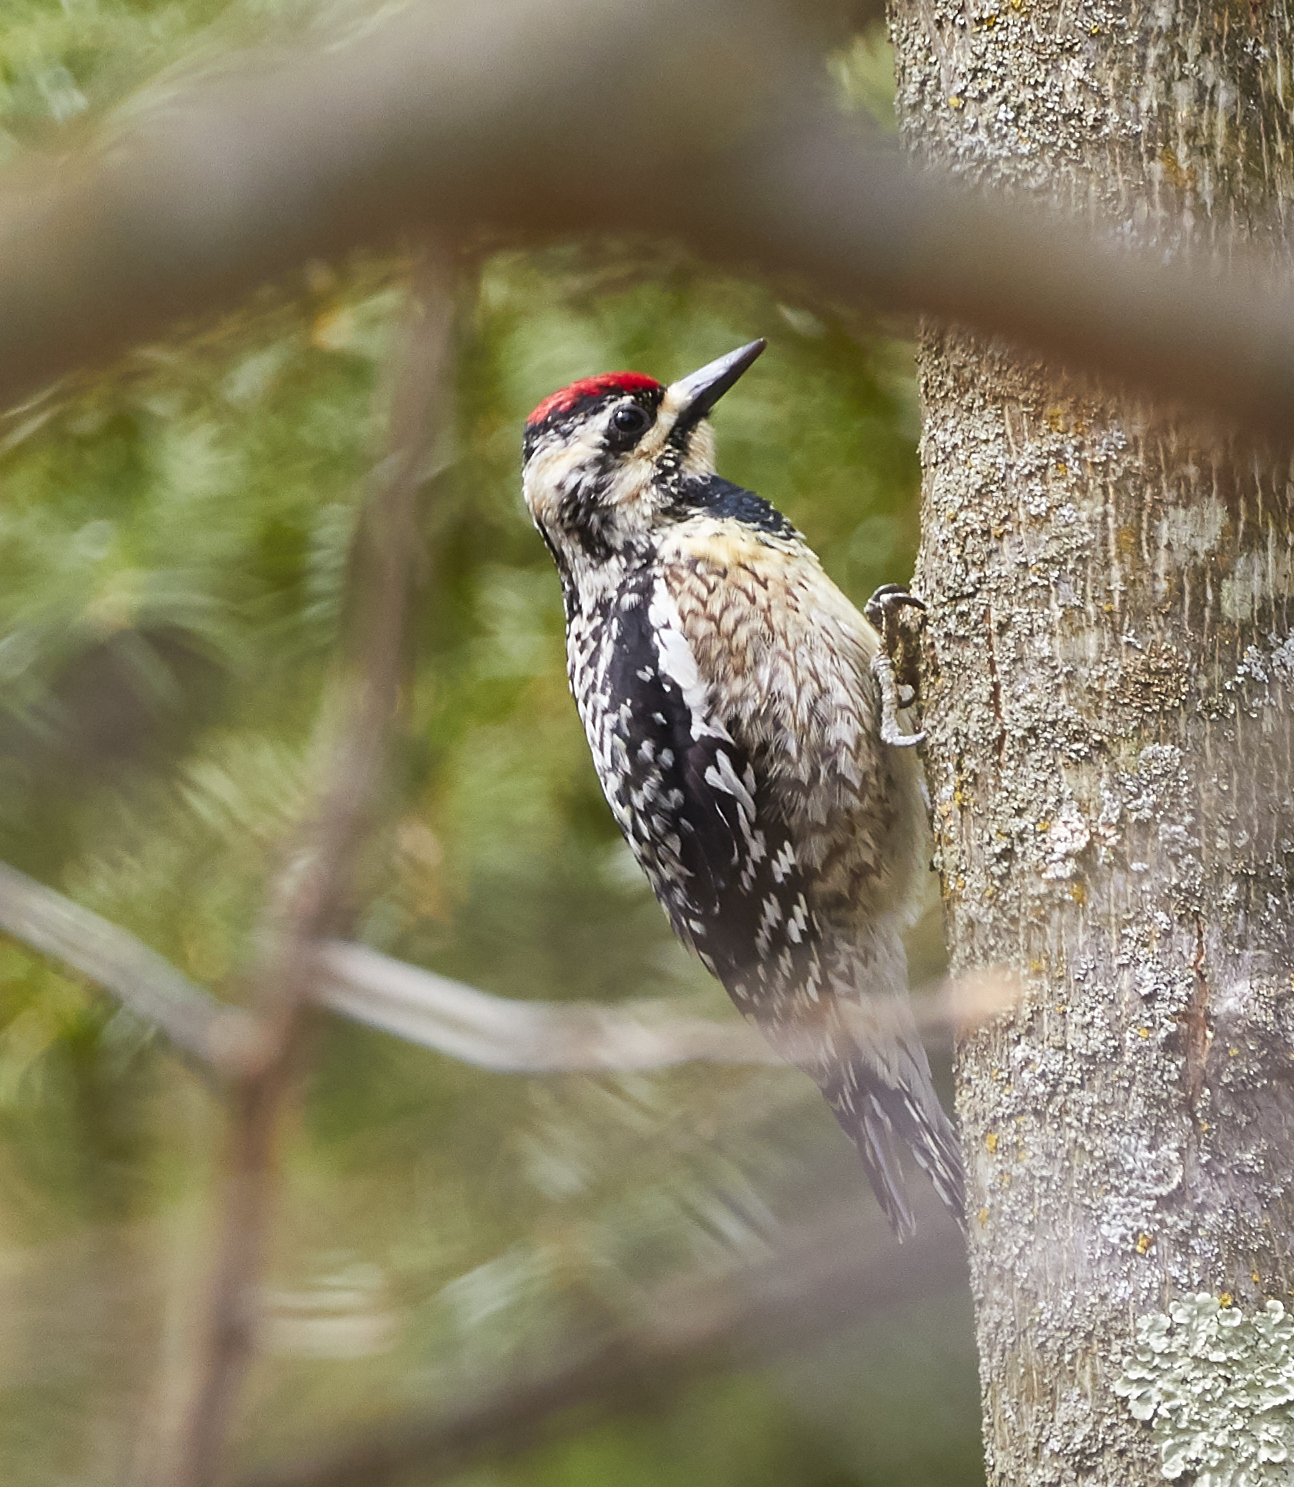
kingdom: Animalia
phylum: Chordata
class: Aves
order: Piciformes
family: Picidae
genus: Sphyrapicus
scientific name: Sphyrapicus varius
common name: Yellow-bellied sapsucker
